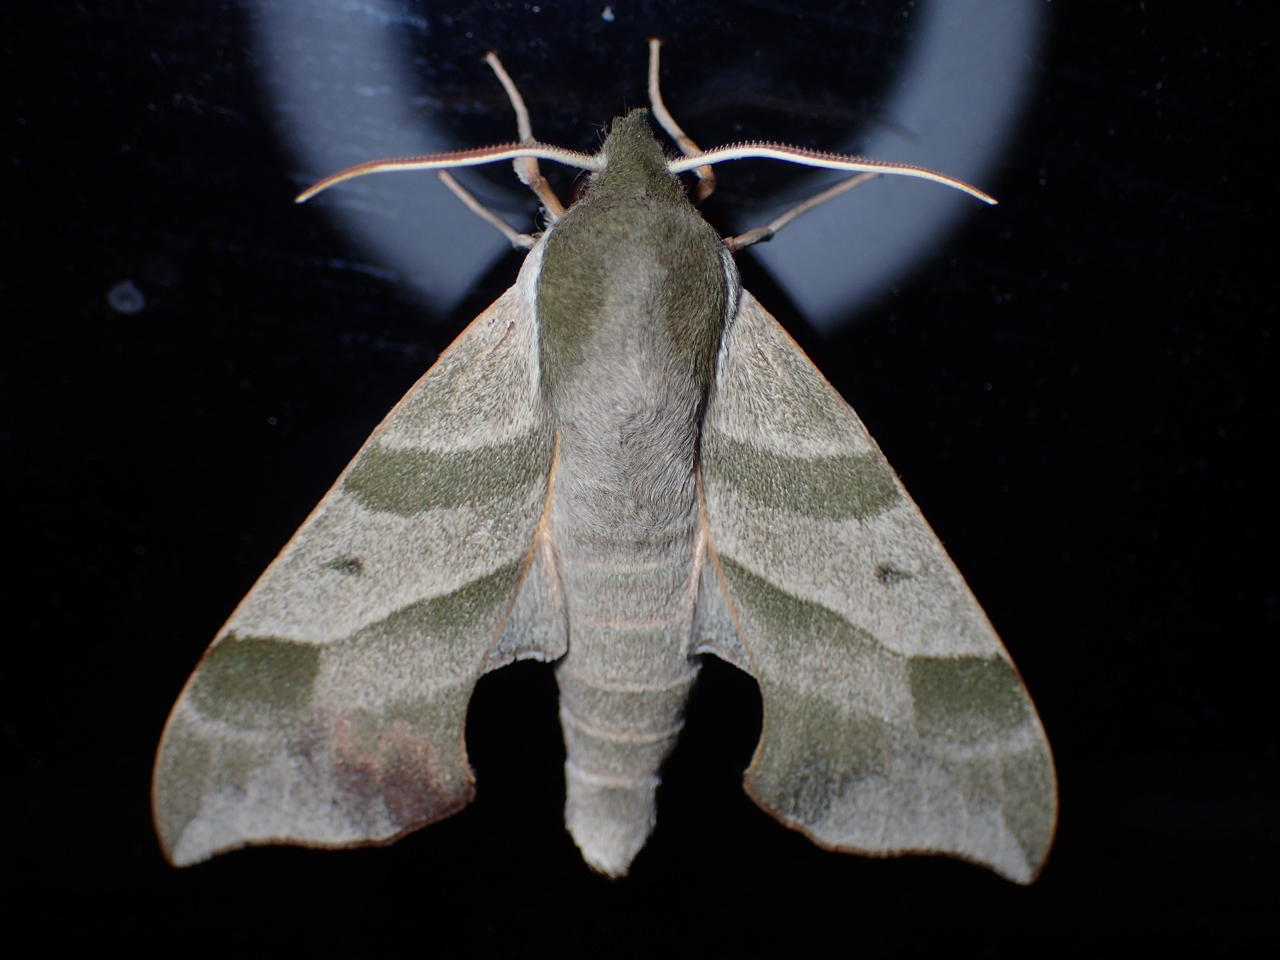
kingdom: Animalia
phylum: Arthropoda
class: Insecta
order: Lepidoptera
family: Sphingidae
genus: Darapsa
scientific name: Darapsa myron
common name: Hog sphinx
